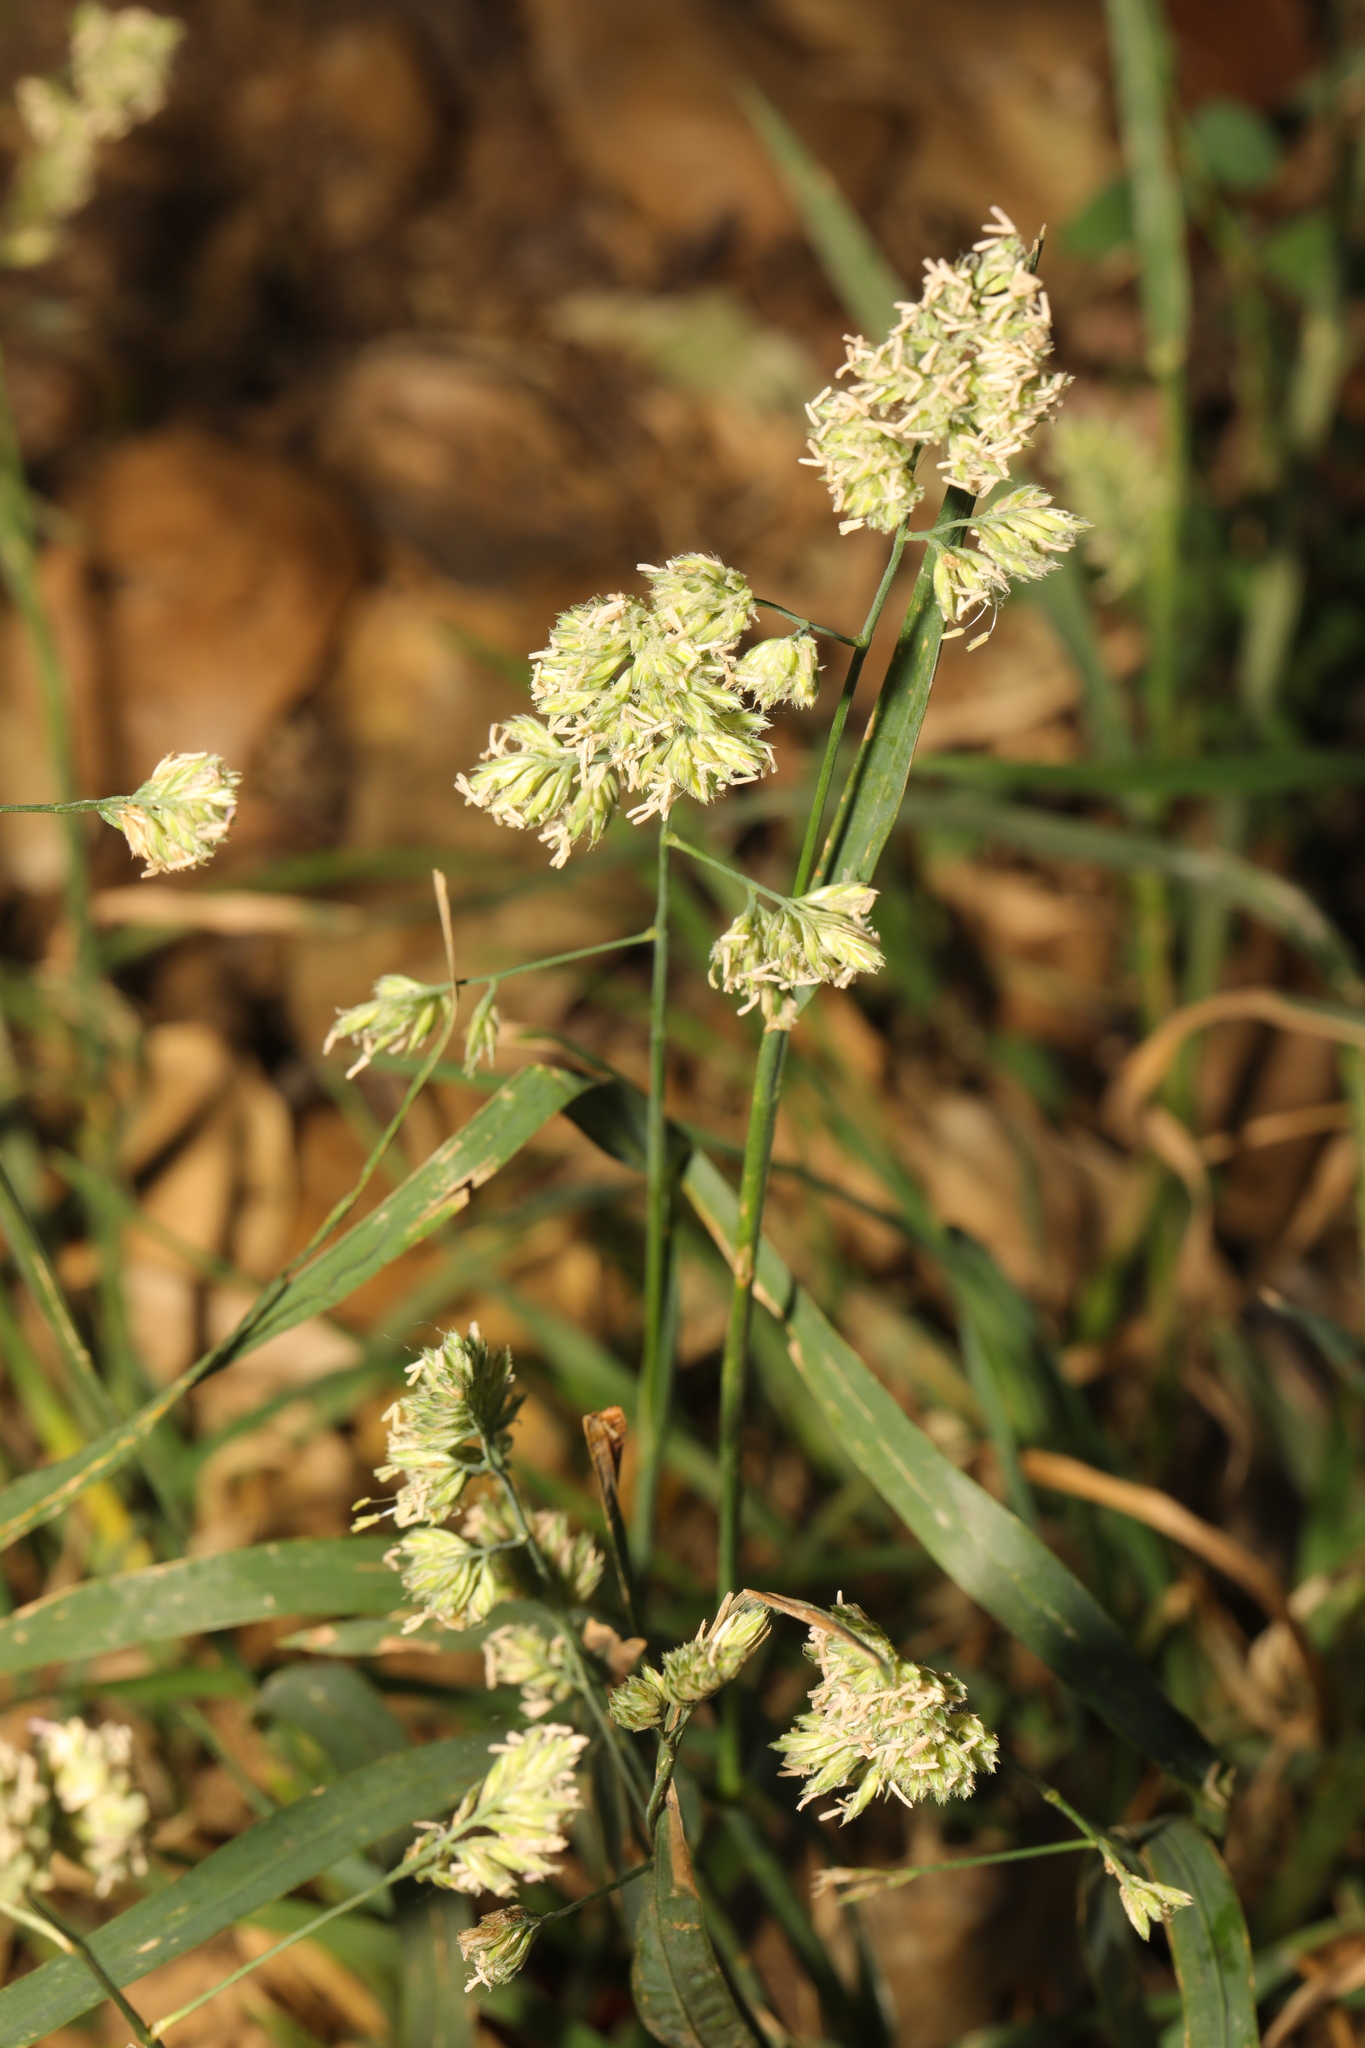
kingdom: Plantae
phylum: Tracheophyta
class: Liliopsida
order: Poales
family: Poaceae
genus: Dactylis
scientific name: Dactylis glomerata
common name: Orchardgrass
